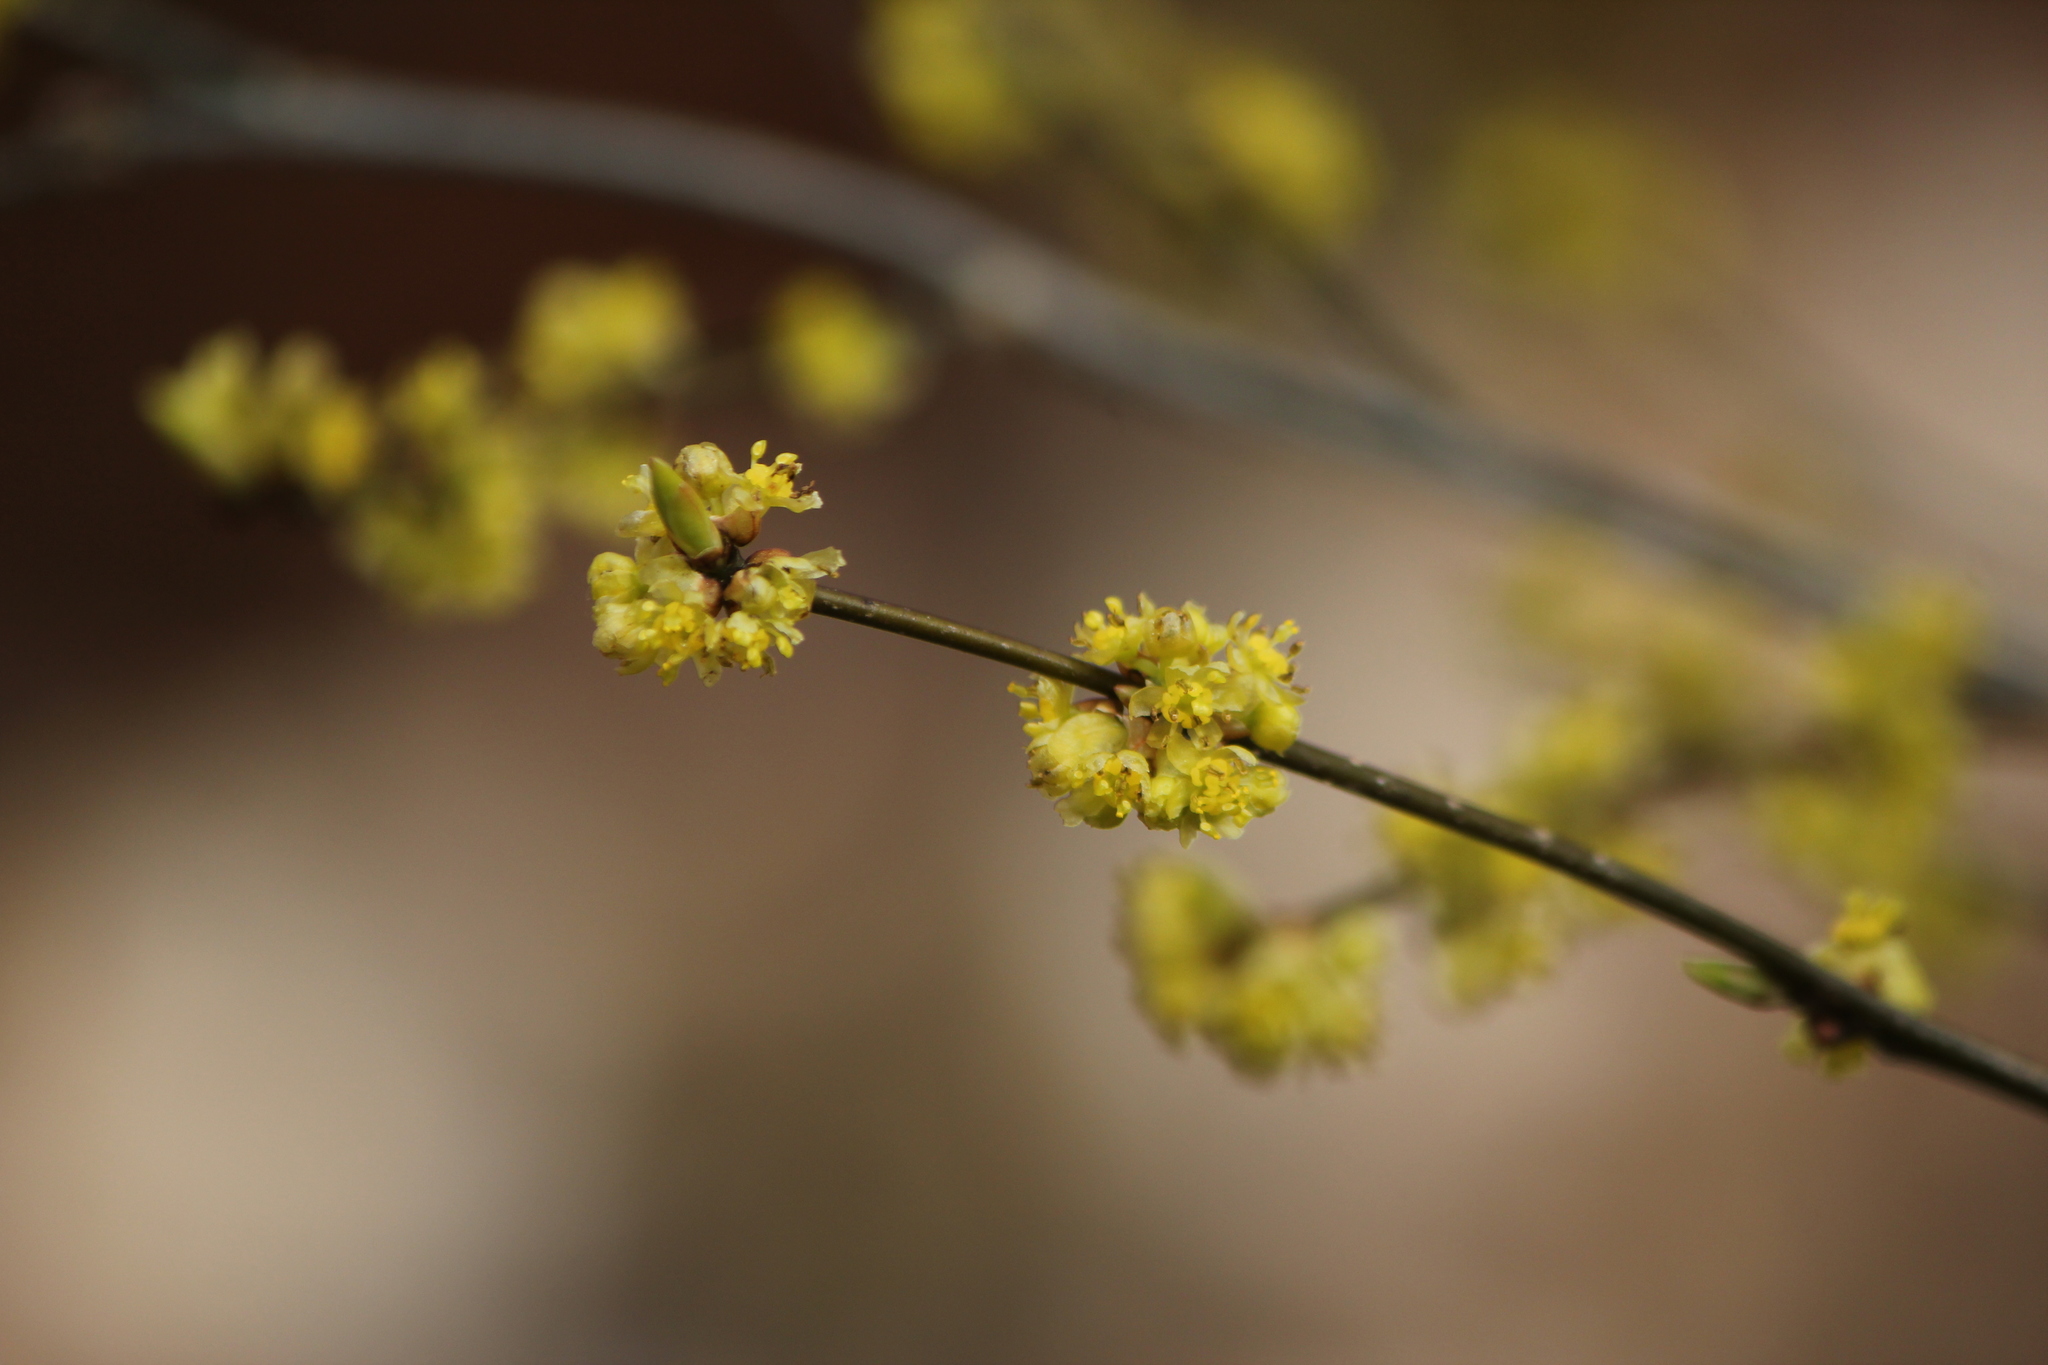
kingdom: Plantae
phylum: Tracheophyta
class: Magnoliopsida
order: Laurales
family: Lauraceae
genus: Lindera
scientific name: Lindera benzoin
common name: Spicebush
